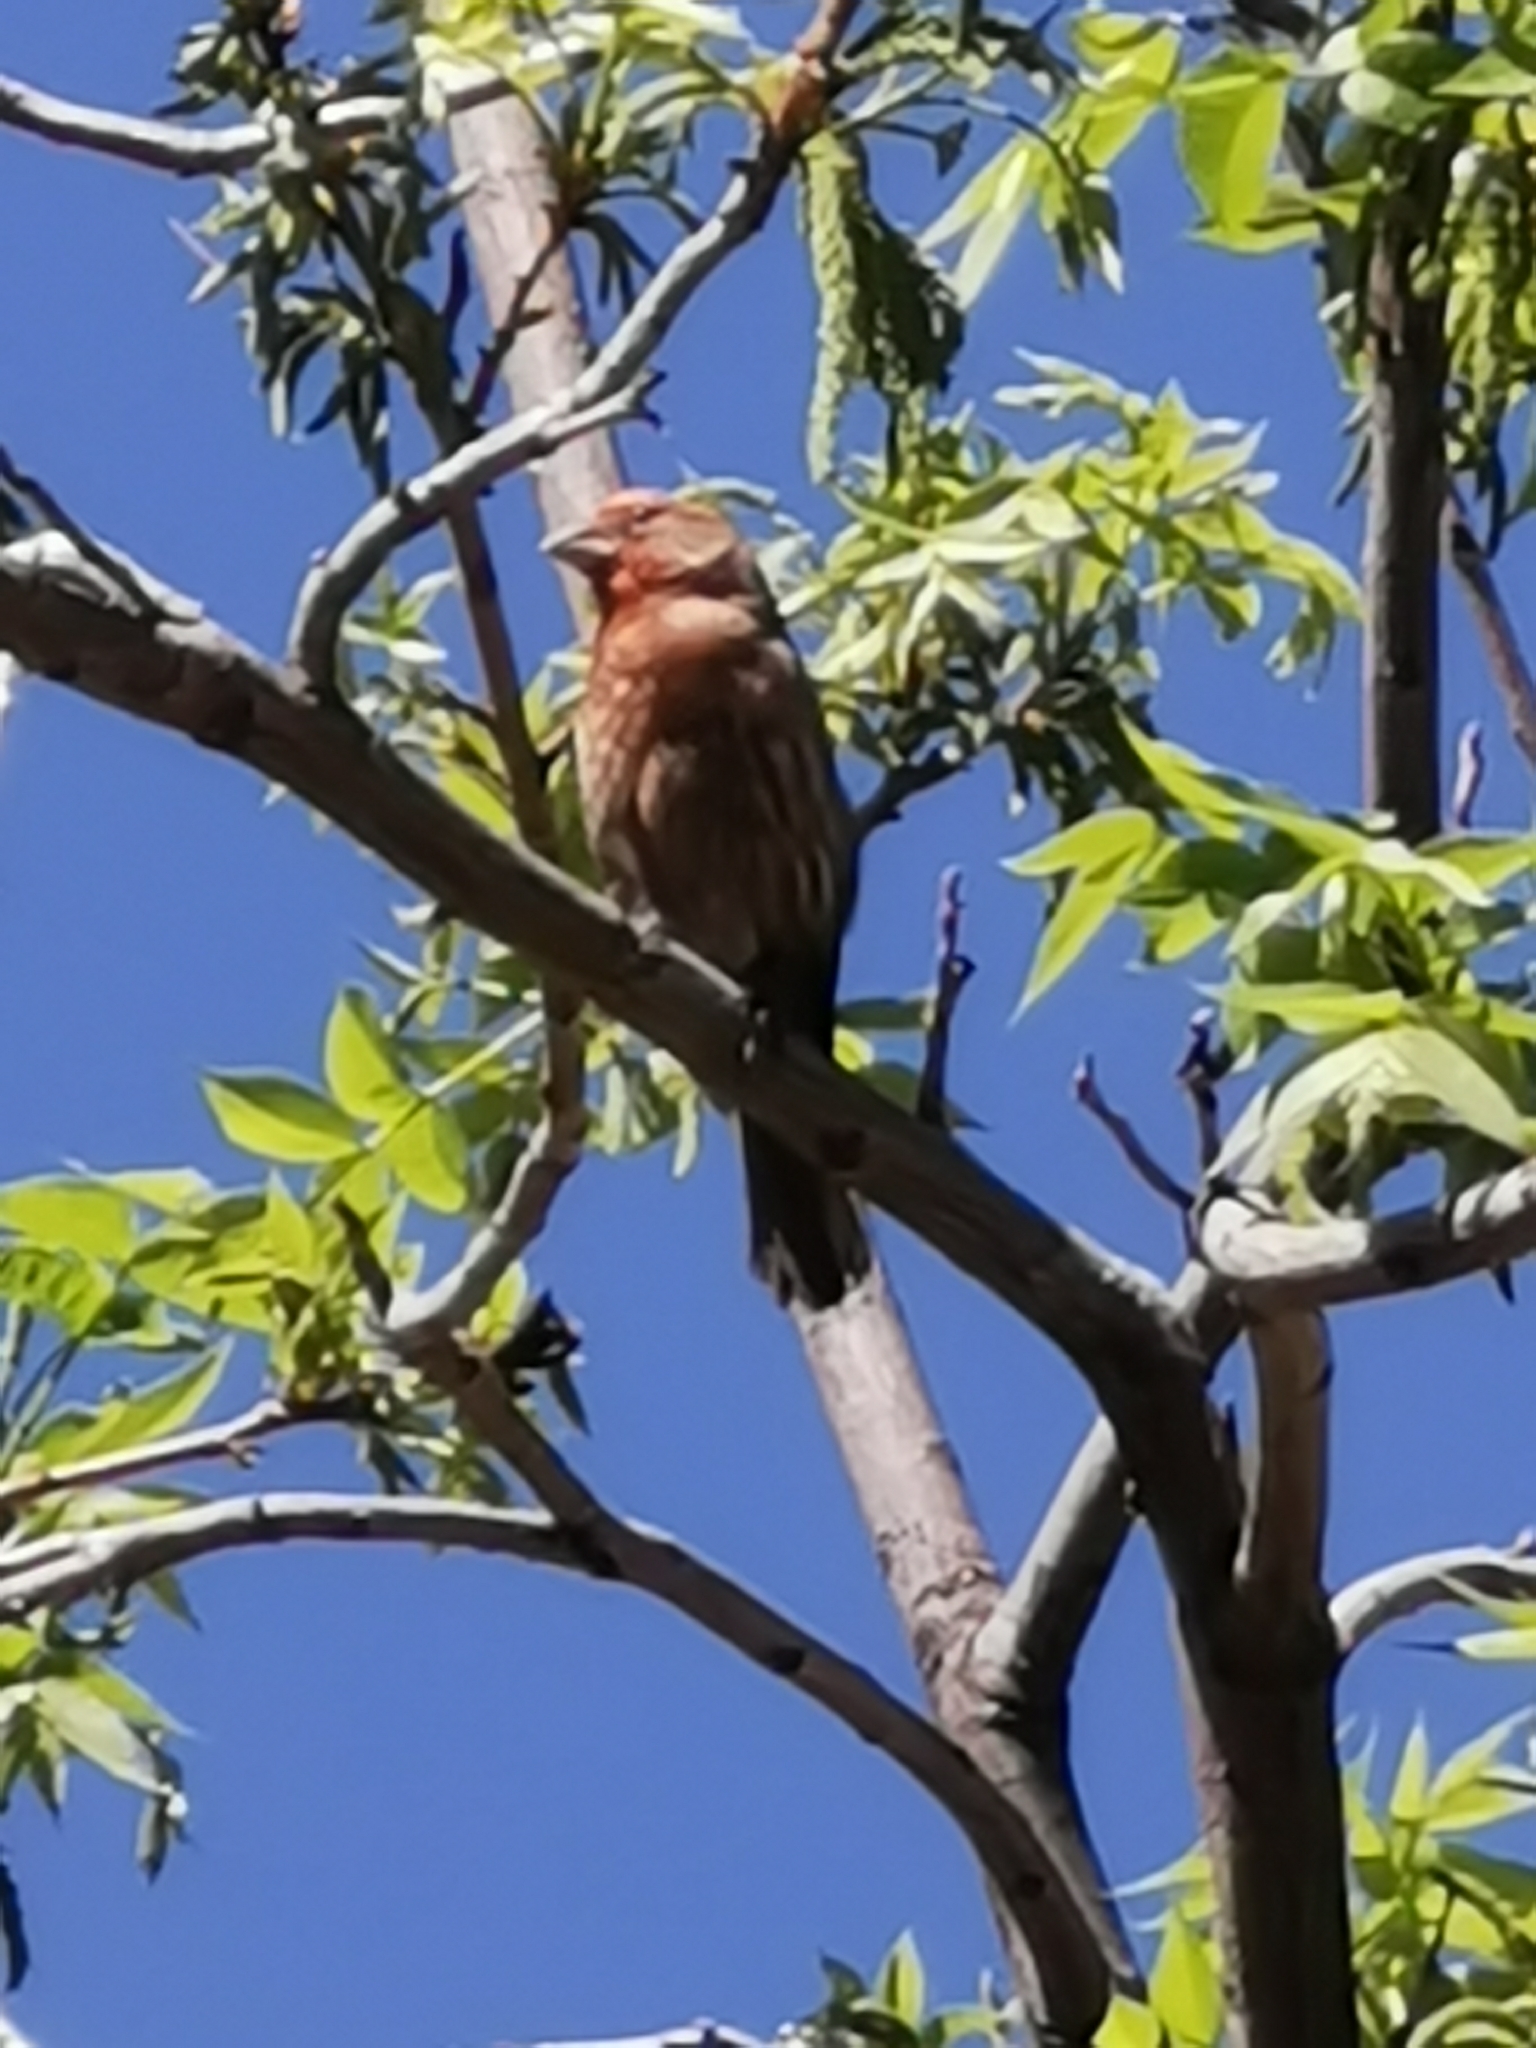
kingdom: Animalia
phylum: Chordata
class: Aves
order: Passeriformes
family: Fringillidae
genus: Haemorhous
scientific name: Haemorhous mexicanus
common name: House finch
